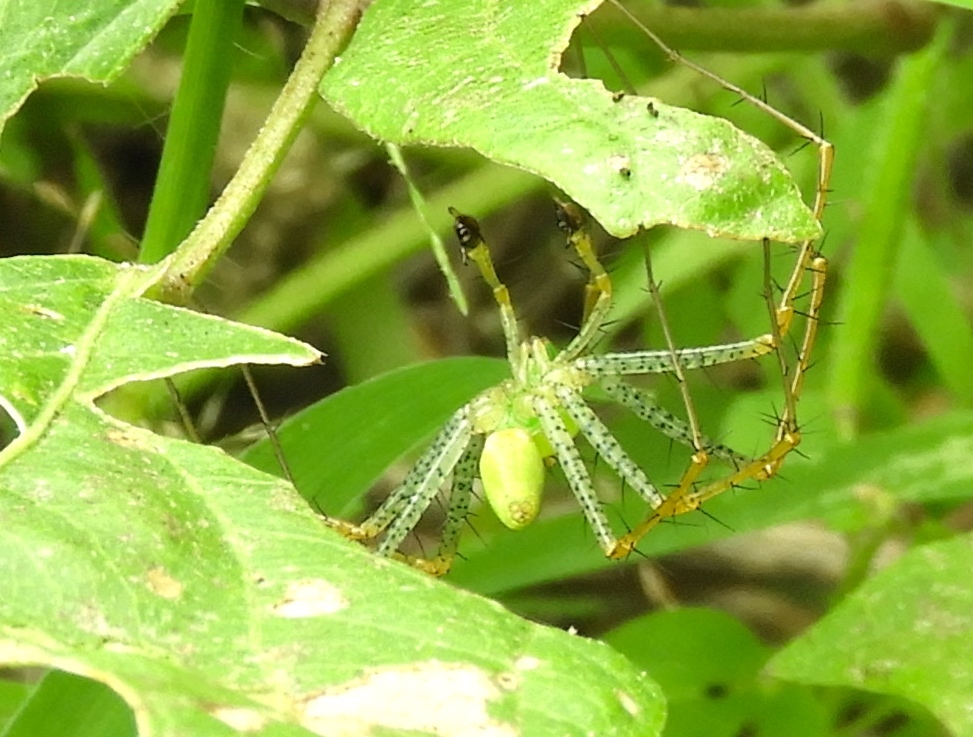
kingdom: Animalia
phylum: Arthropoda
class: Arachnida
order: Araneae
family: Oxyopidae
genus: Peucetia
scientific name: Peucetia
